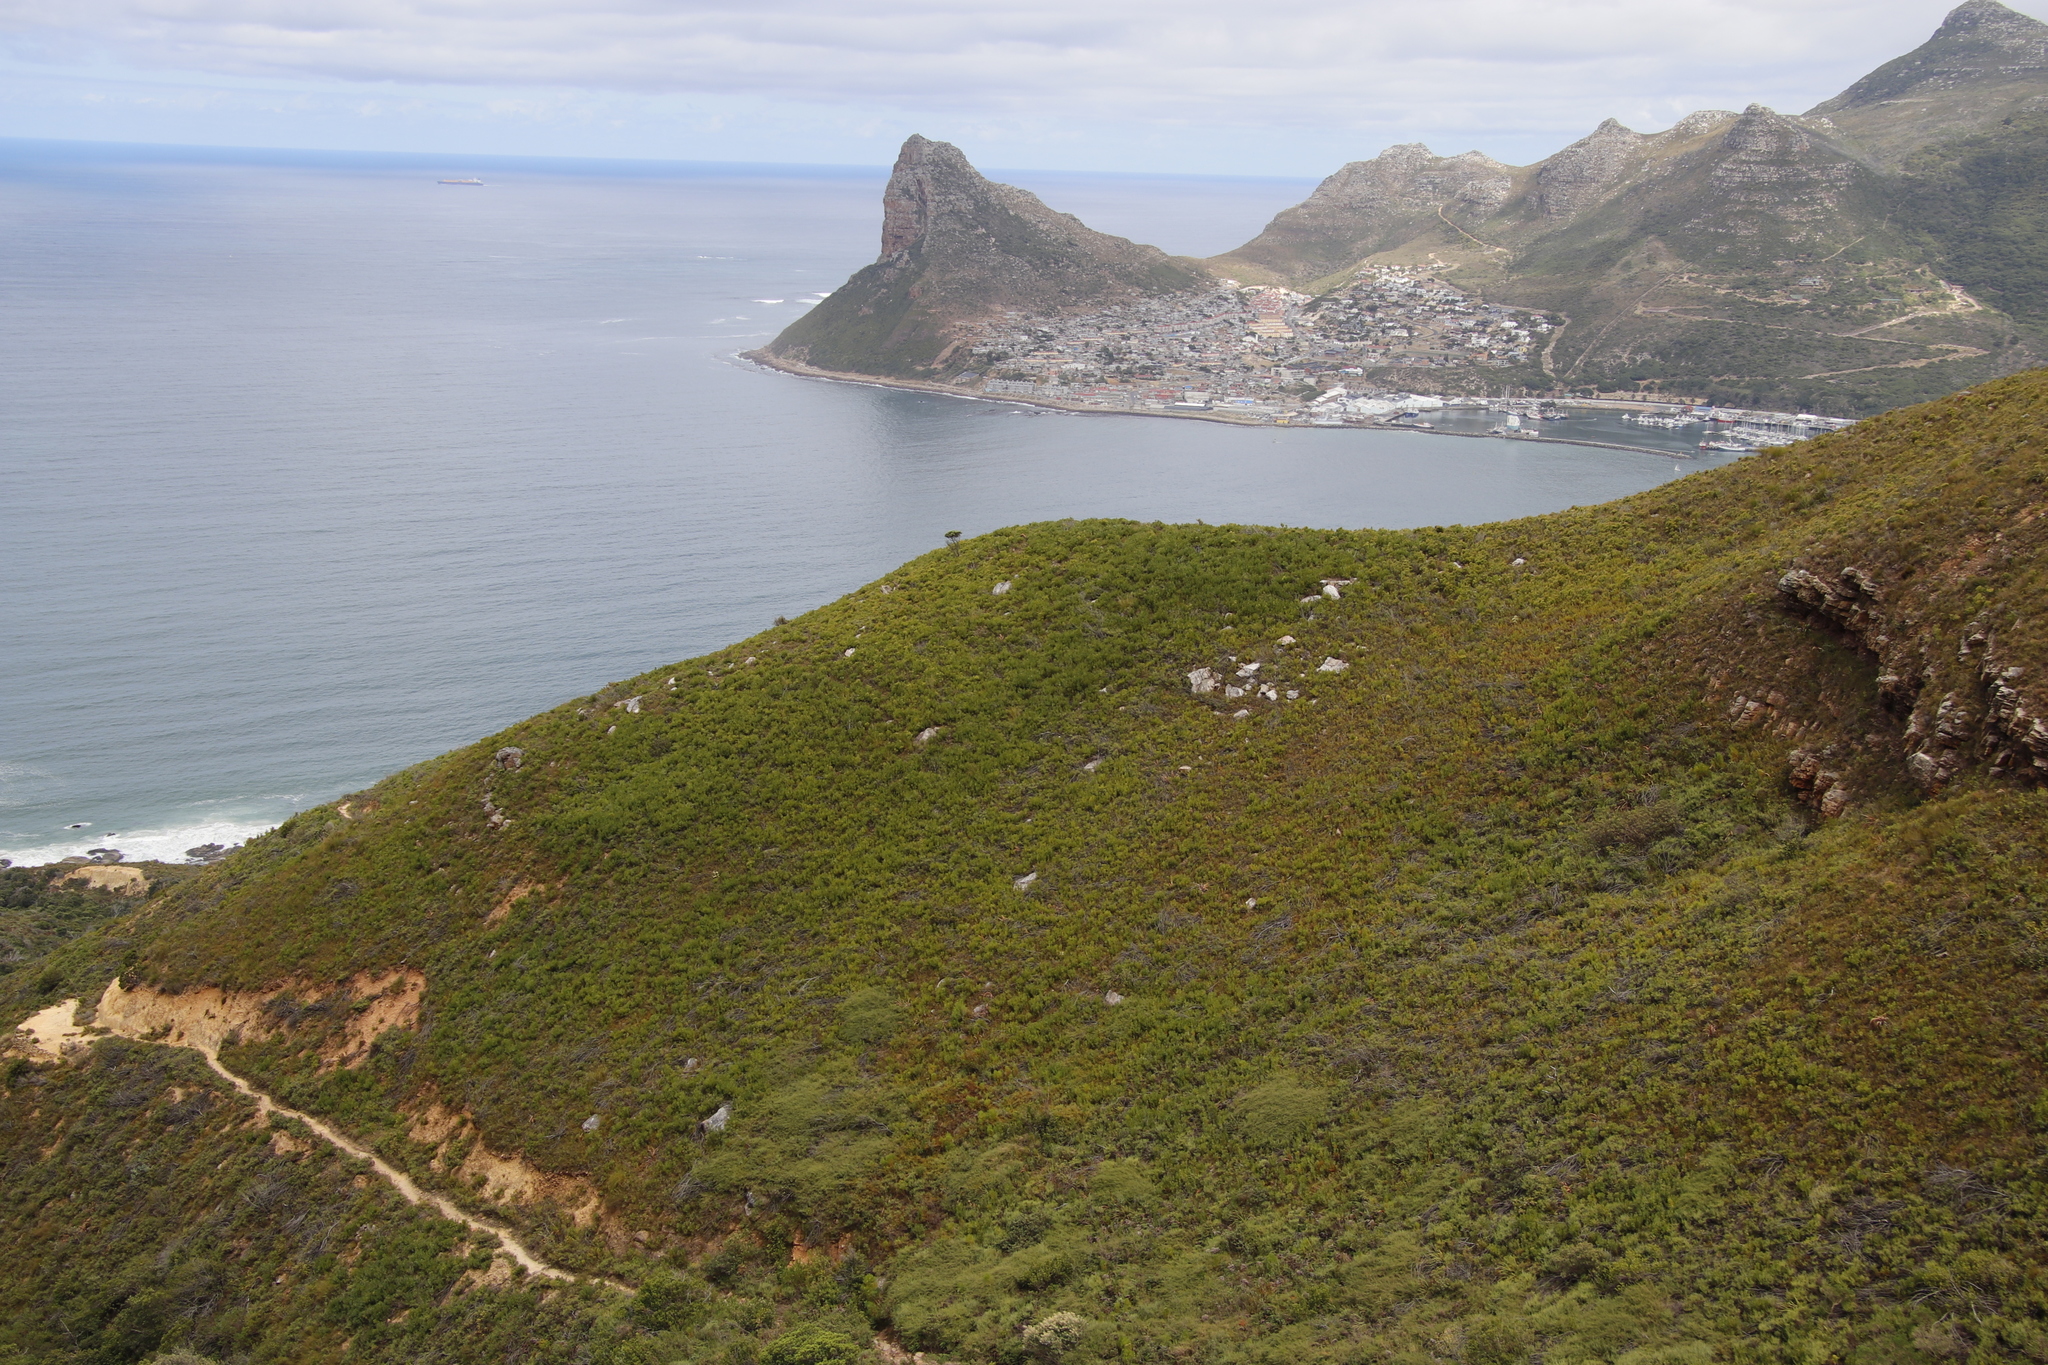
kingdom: Plantae
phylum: Tracheophyta
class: Magnoliopsida
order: Proteales
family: Proteaceae
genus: Protea
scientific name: Protea lepidocarpodendron
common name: Black-bearded protea
